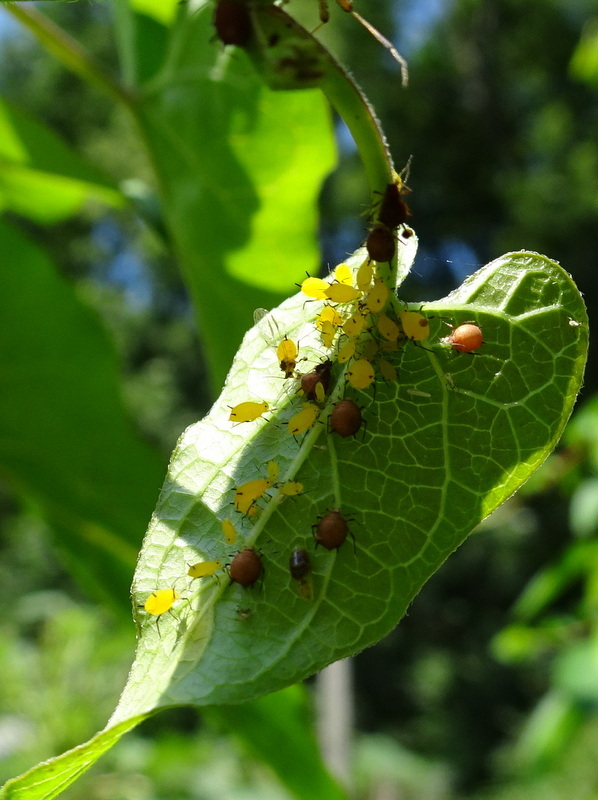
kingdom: Animalia
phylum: Arthropoda
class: Insecta
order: Hemiptera
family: Aphididae
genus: Aphis
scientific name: Aphis nerii
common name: Oleander aphid
